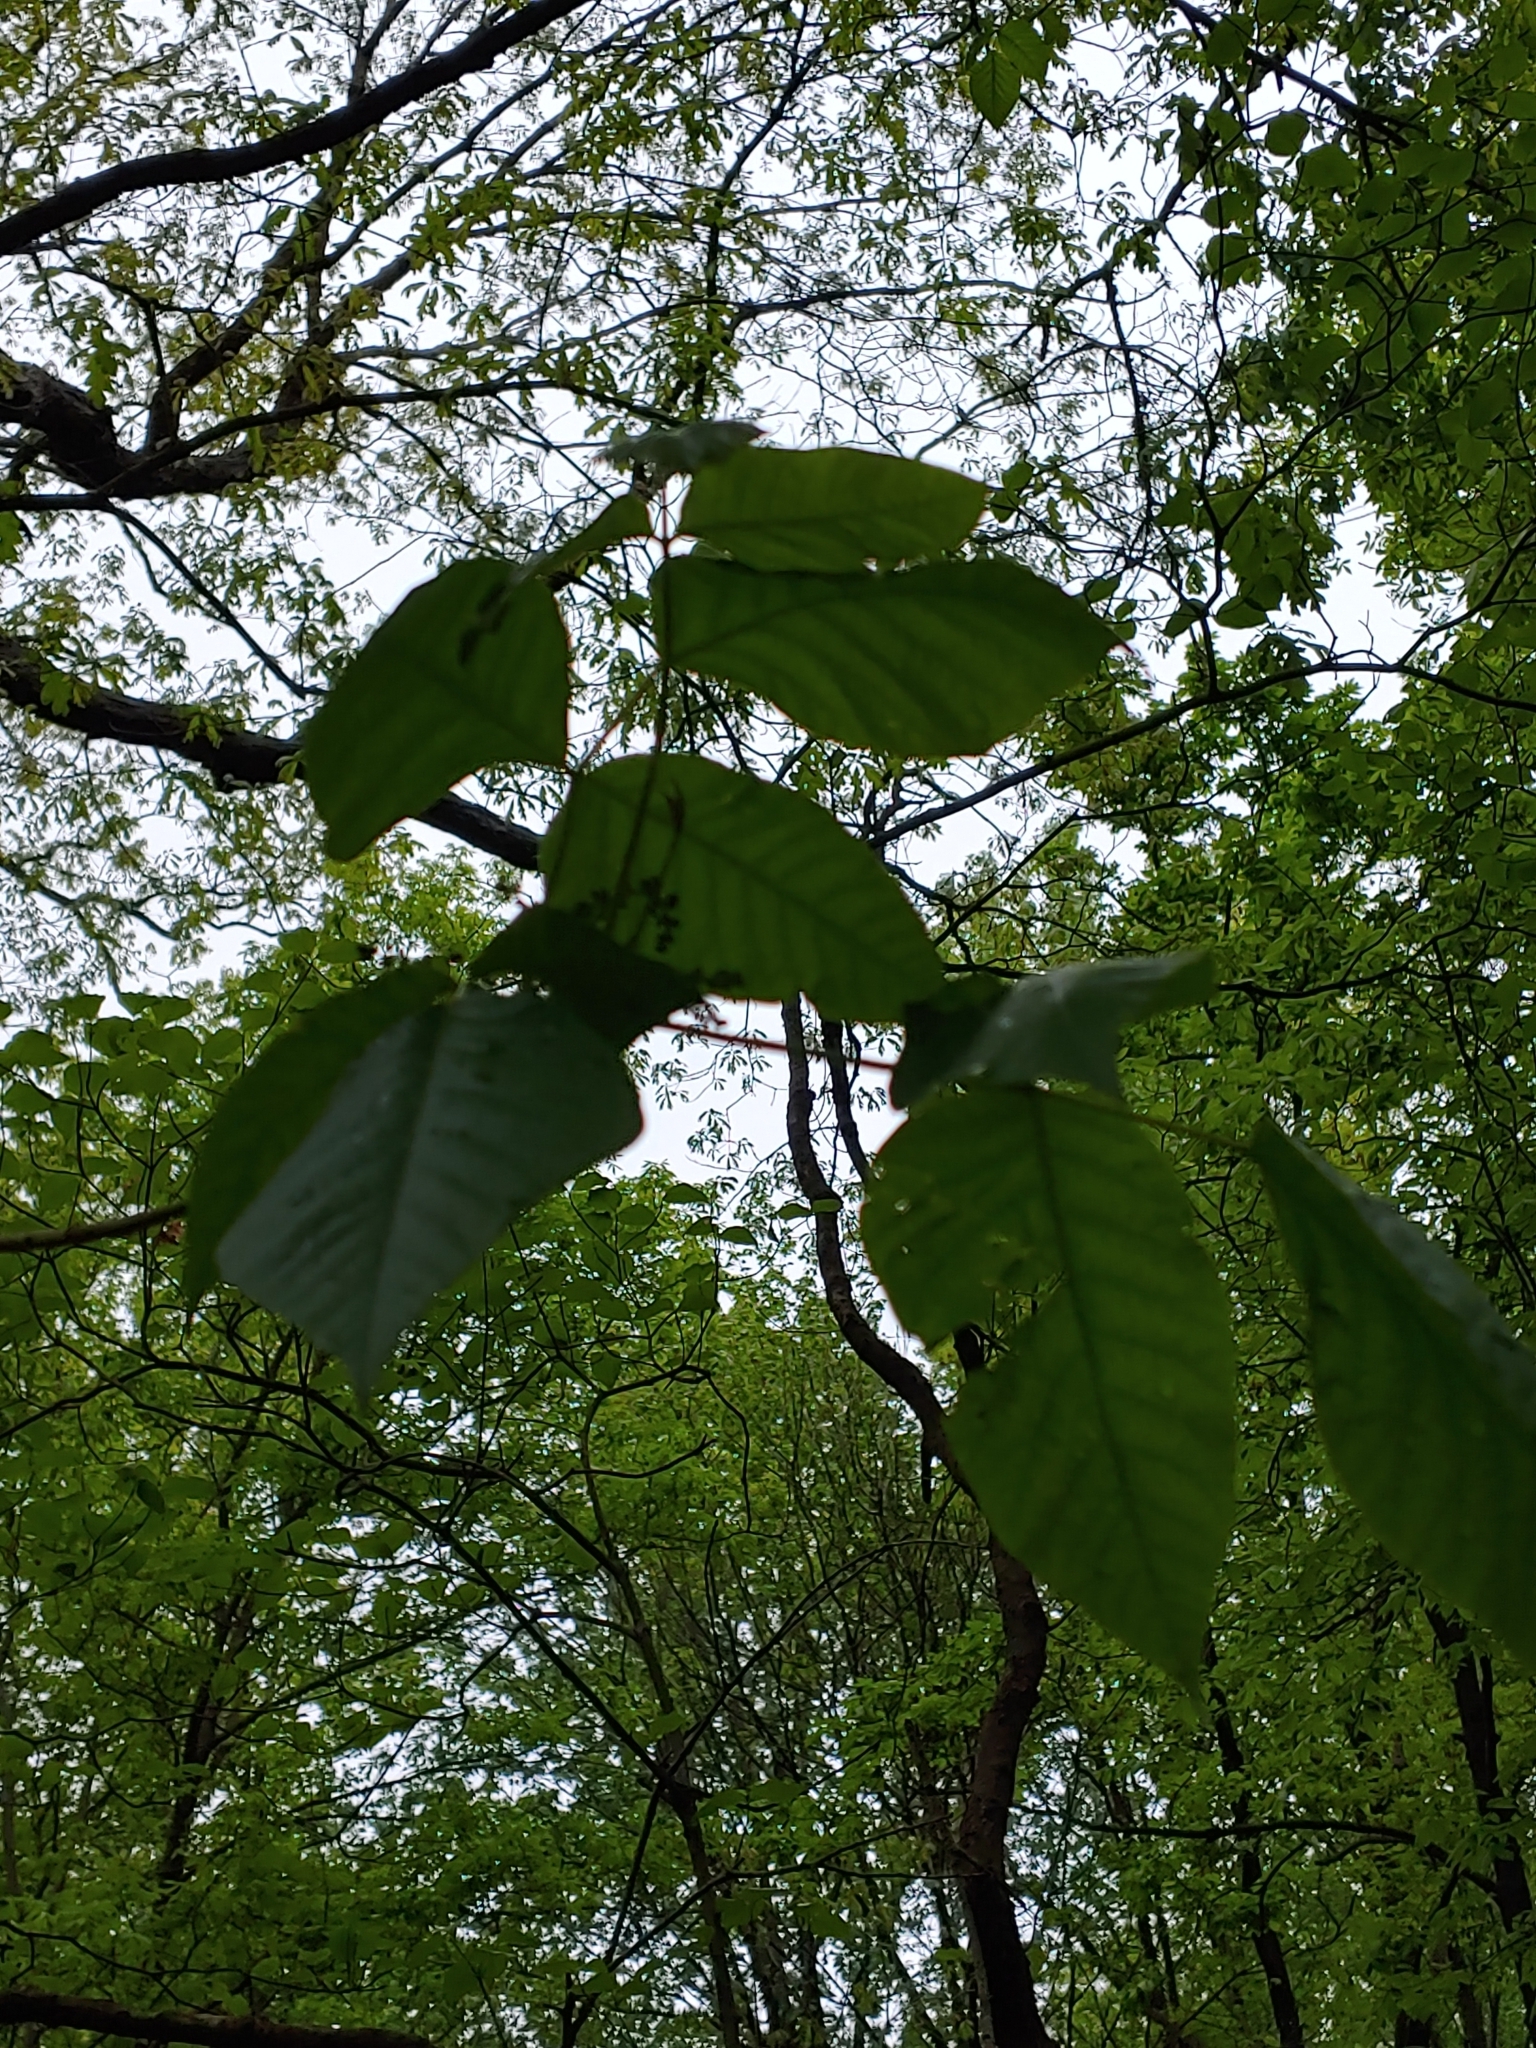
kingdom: Plantae
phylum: Tracheophyta
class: Magnoliopsida
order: Sapindales
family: Anacardiaceae
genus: Toxicodendron
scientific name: Toxicodendron radicans
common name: Poison ivy
